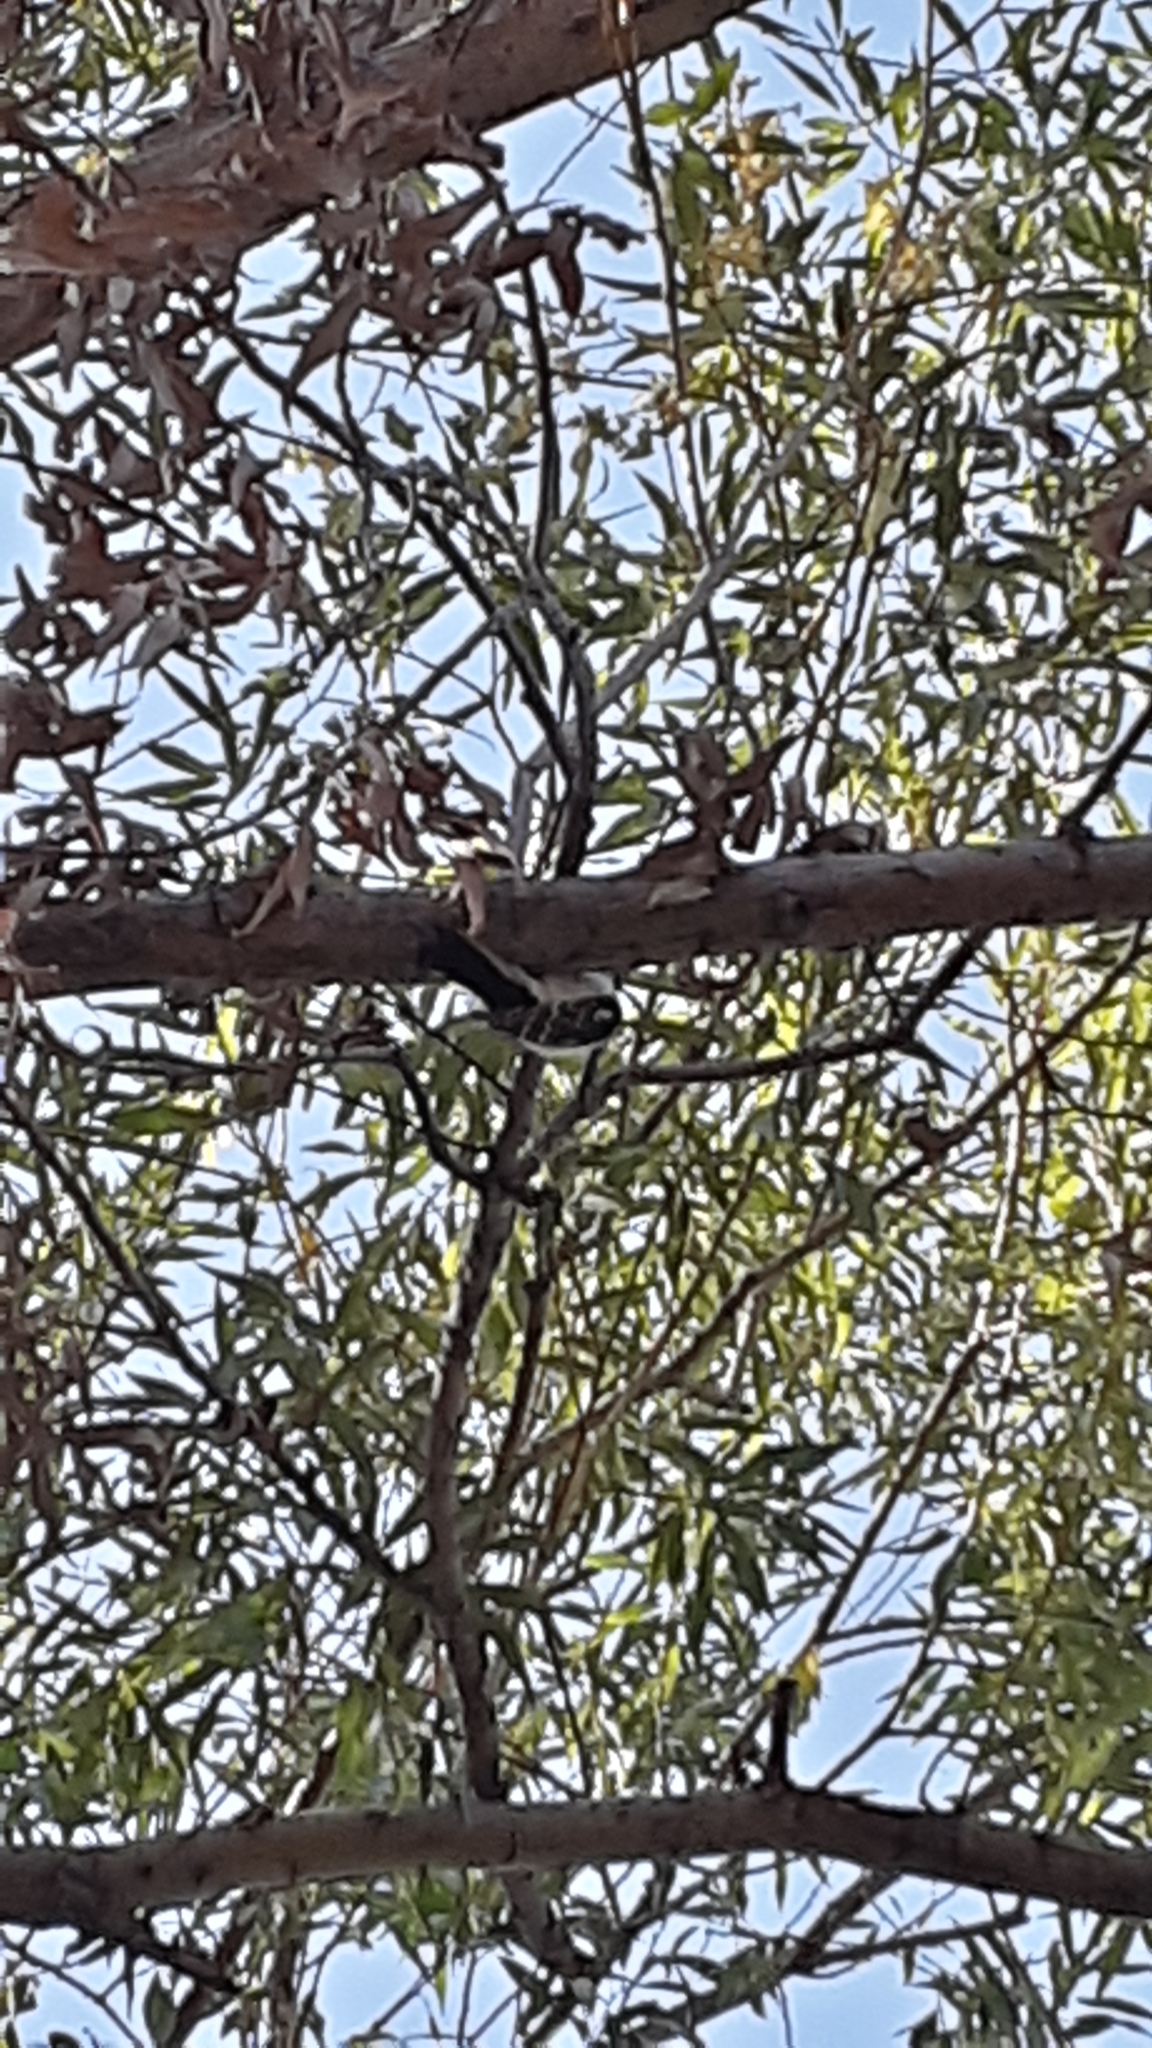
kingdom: Animalia
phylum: Chordata
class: Aves
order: Piciformes
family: Picidae
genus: Dryobates
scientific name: Dryobates pubescens
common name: Downy woodpecker
